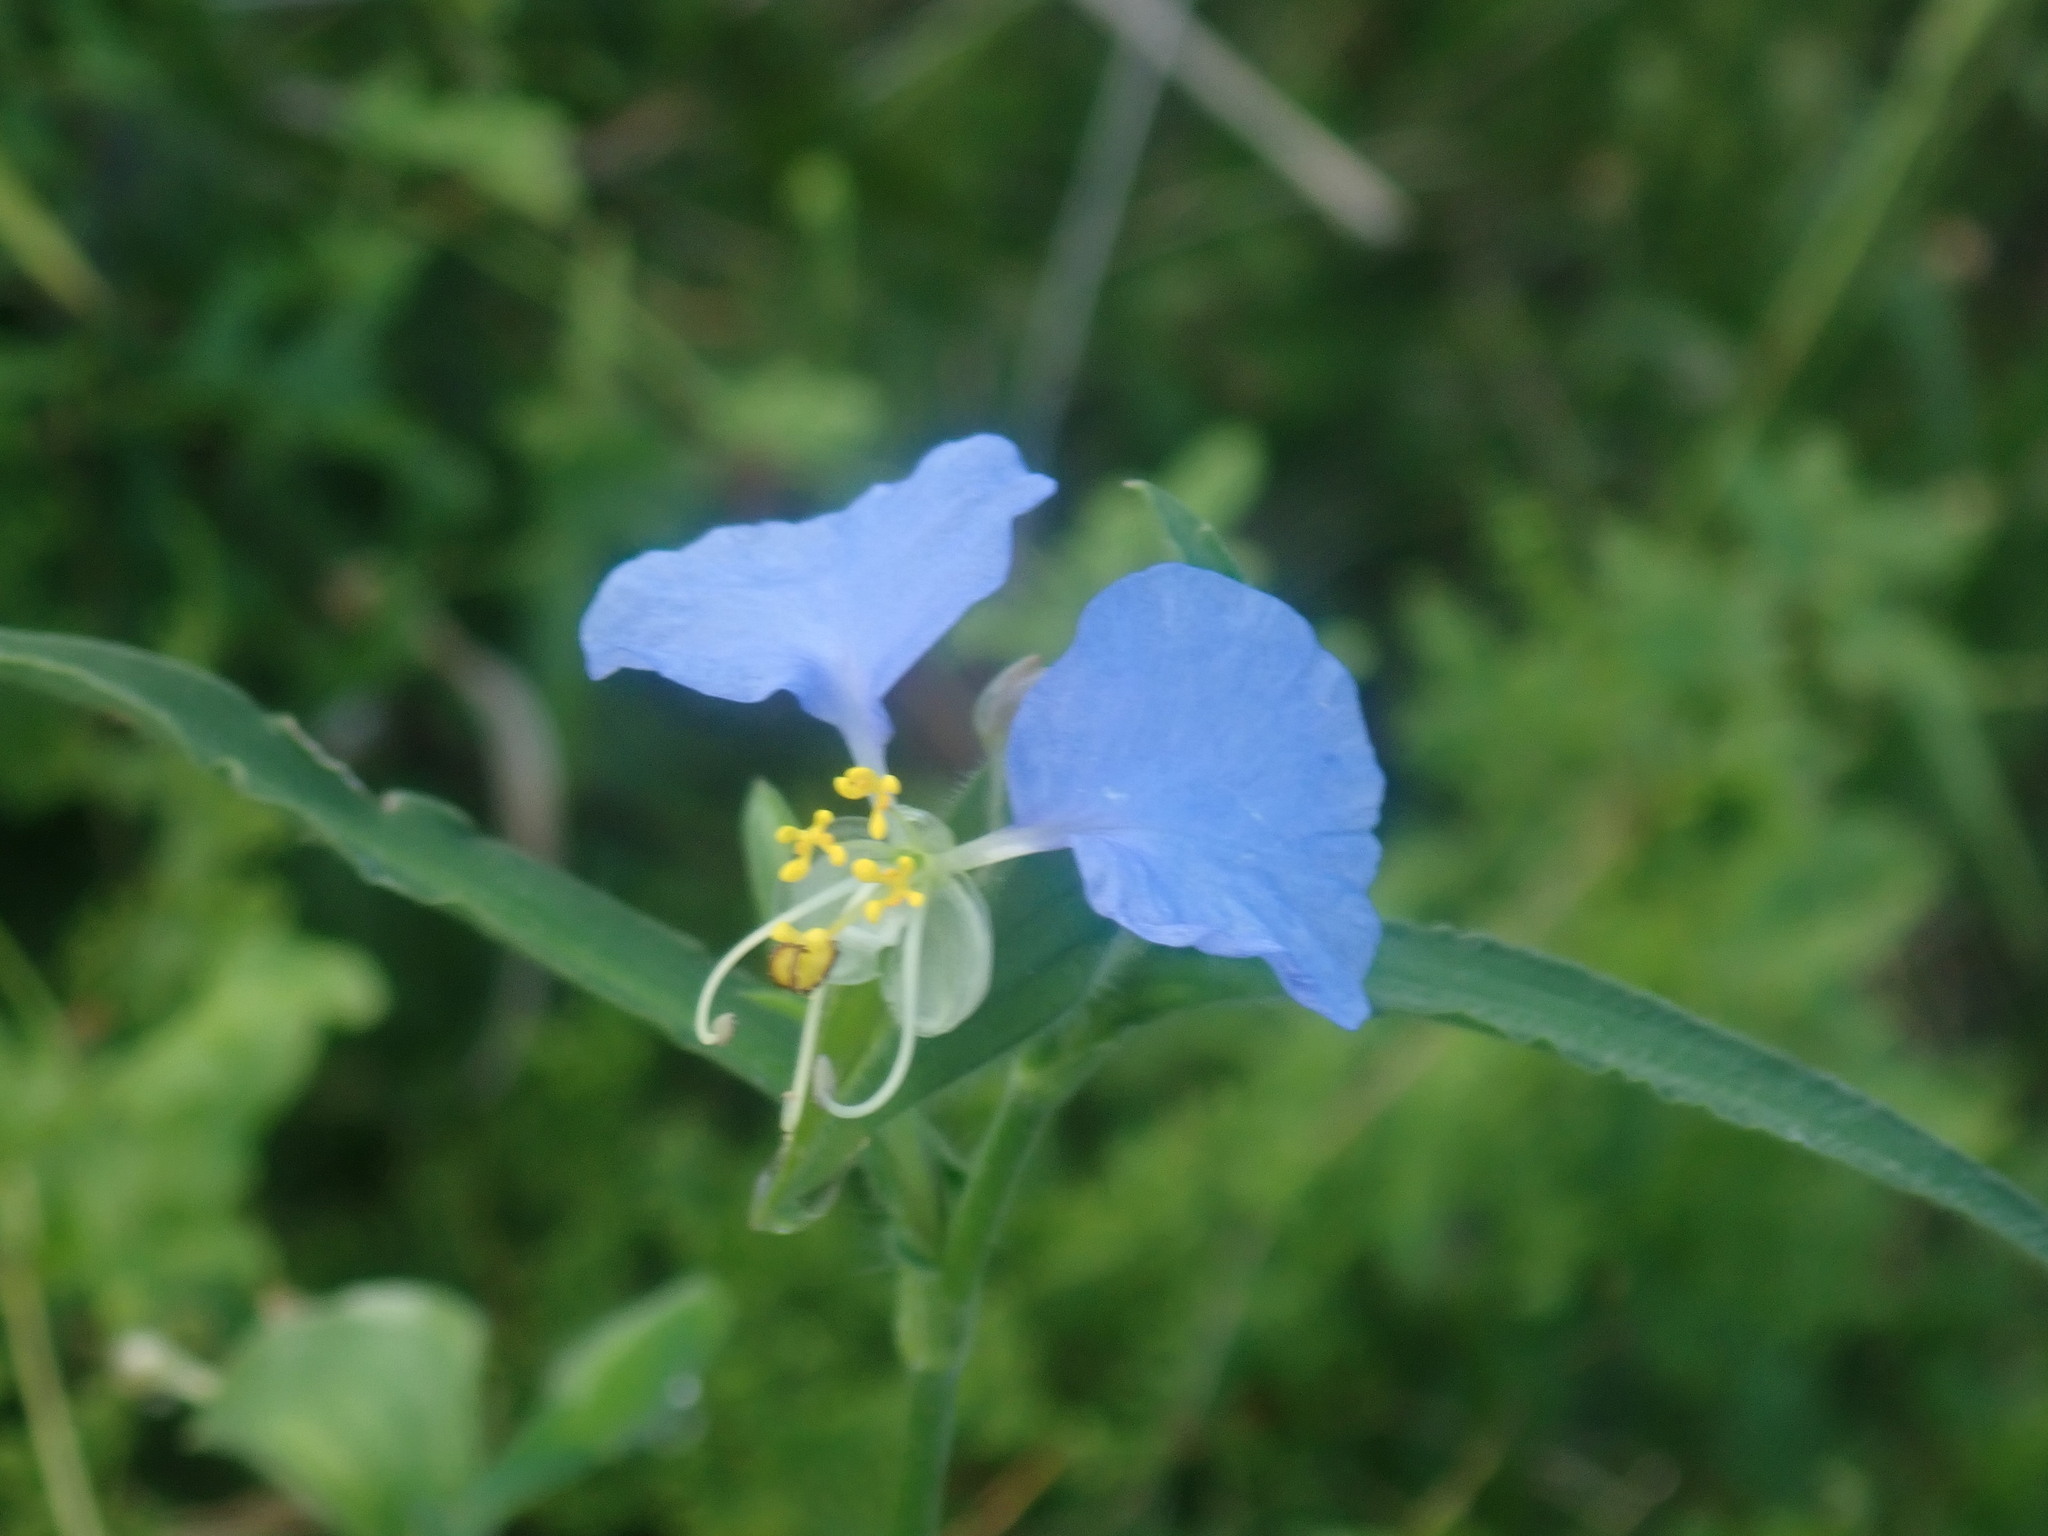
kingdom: Plantae
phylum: Tracheophyta
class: Liliopsida
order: Commelinales
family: Commelinaceae
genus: Commelina
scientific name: Commelina erecta
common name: Blousel blommetjie
